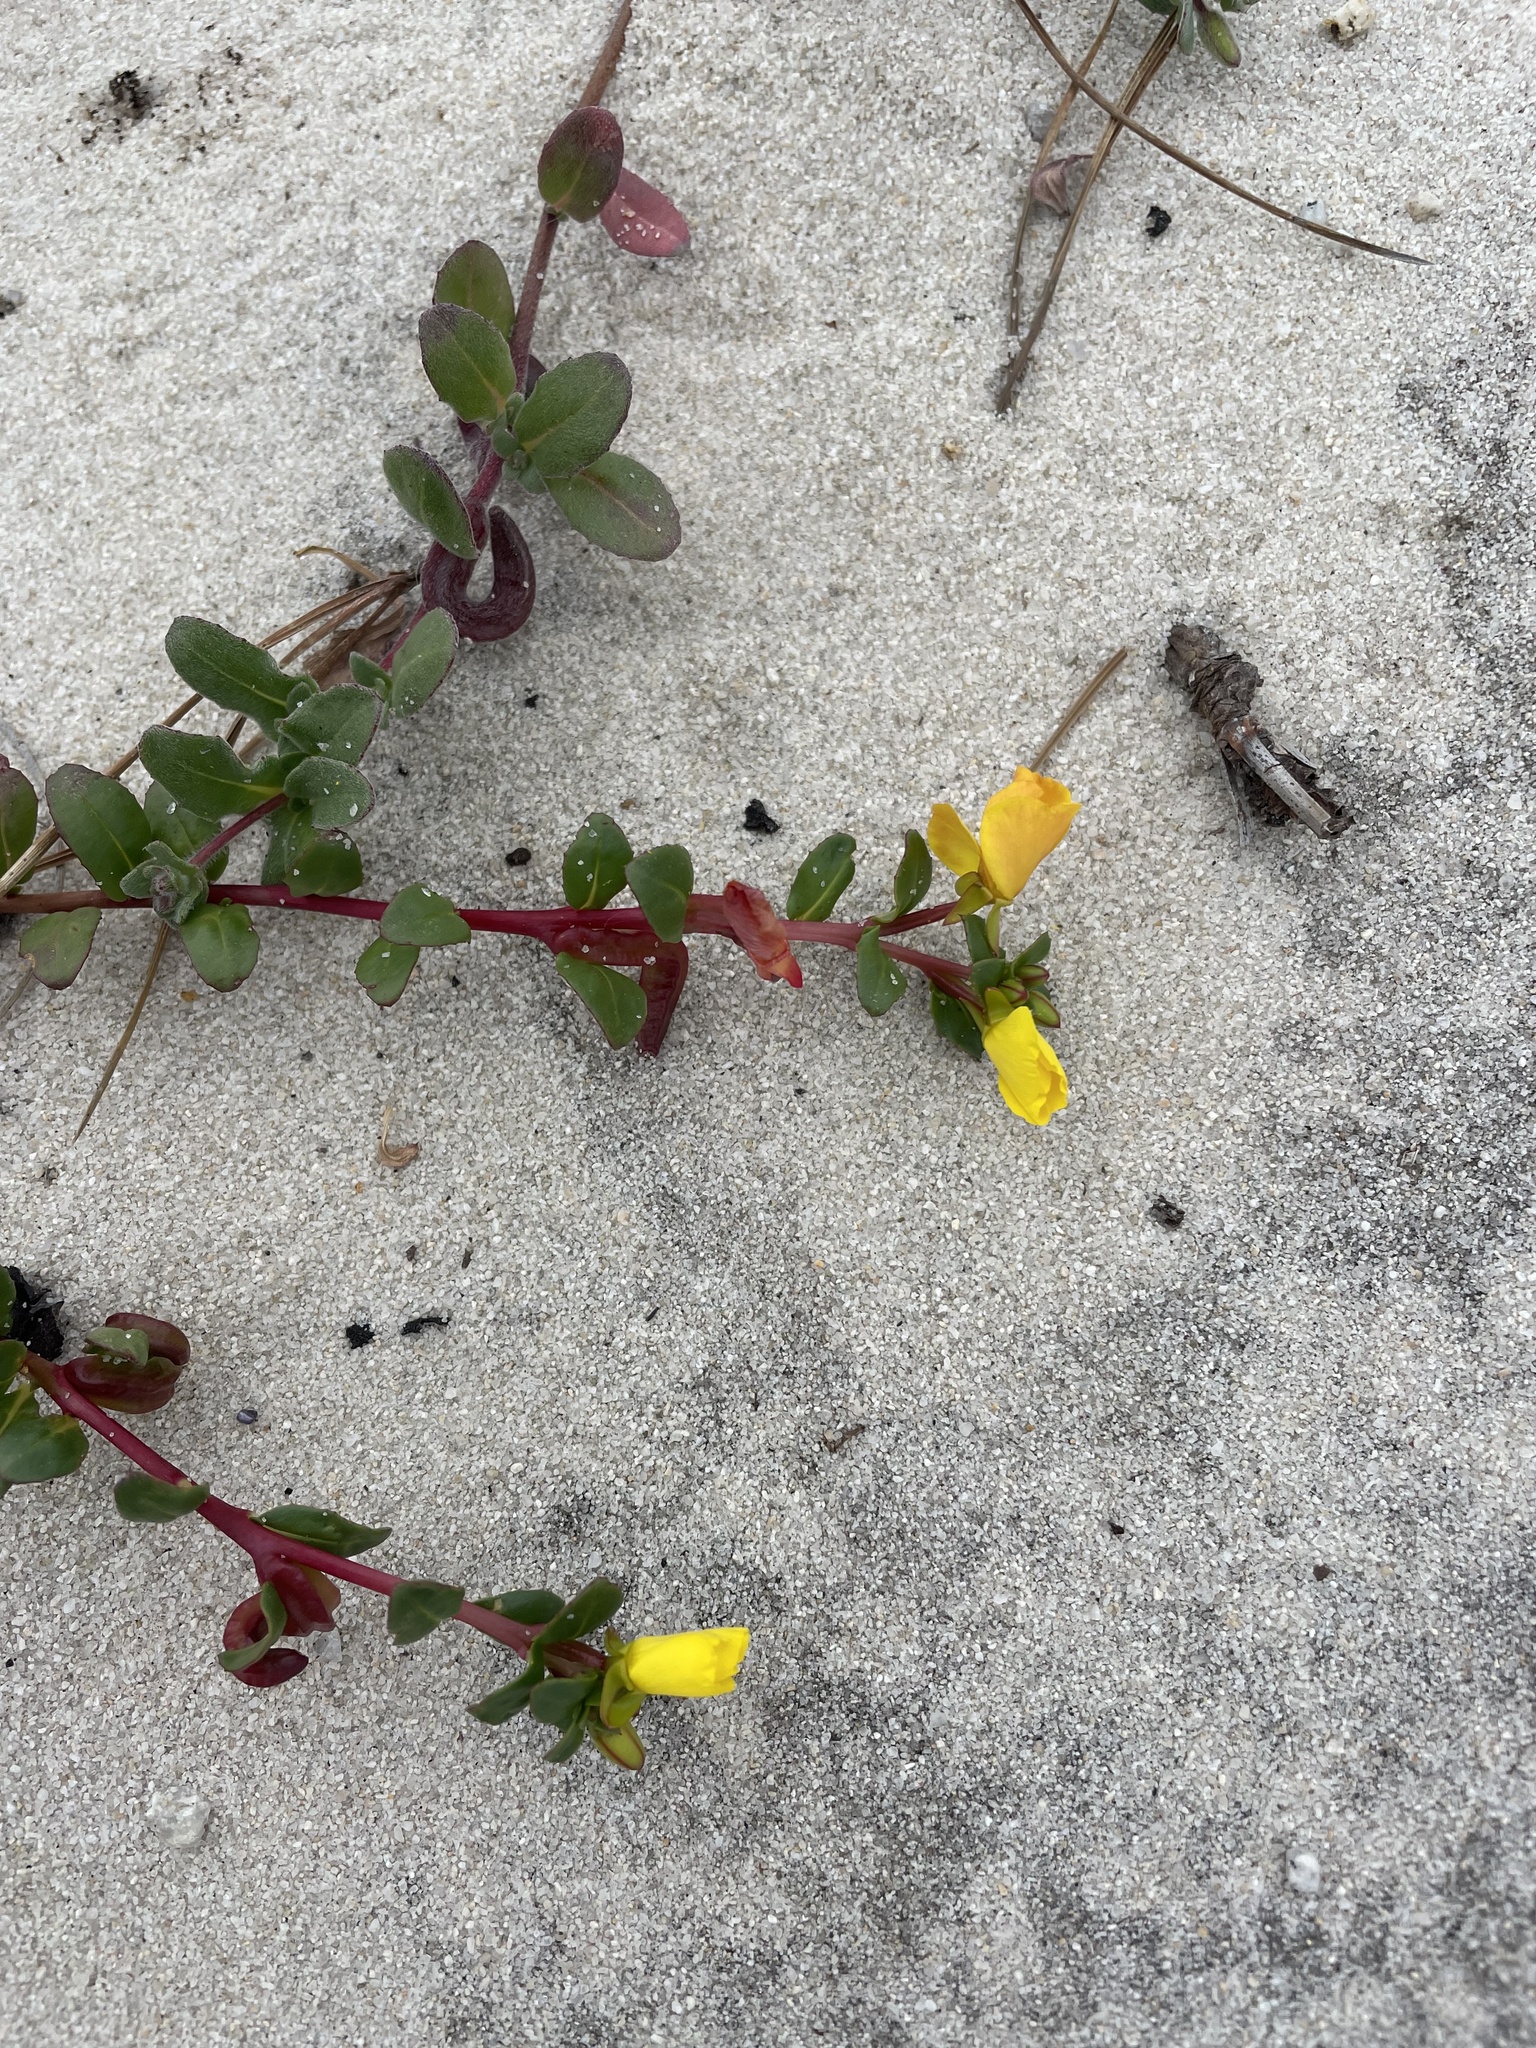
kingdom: Plantae
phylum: Tracheophyta
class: Magnoliopsida
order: Myrtales
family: Onagraceae
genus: Camissoniopsis
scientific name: Camissoniopsis cheiranthifolia
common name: Beach suncup
